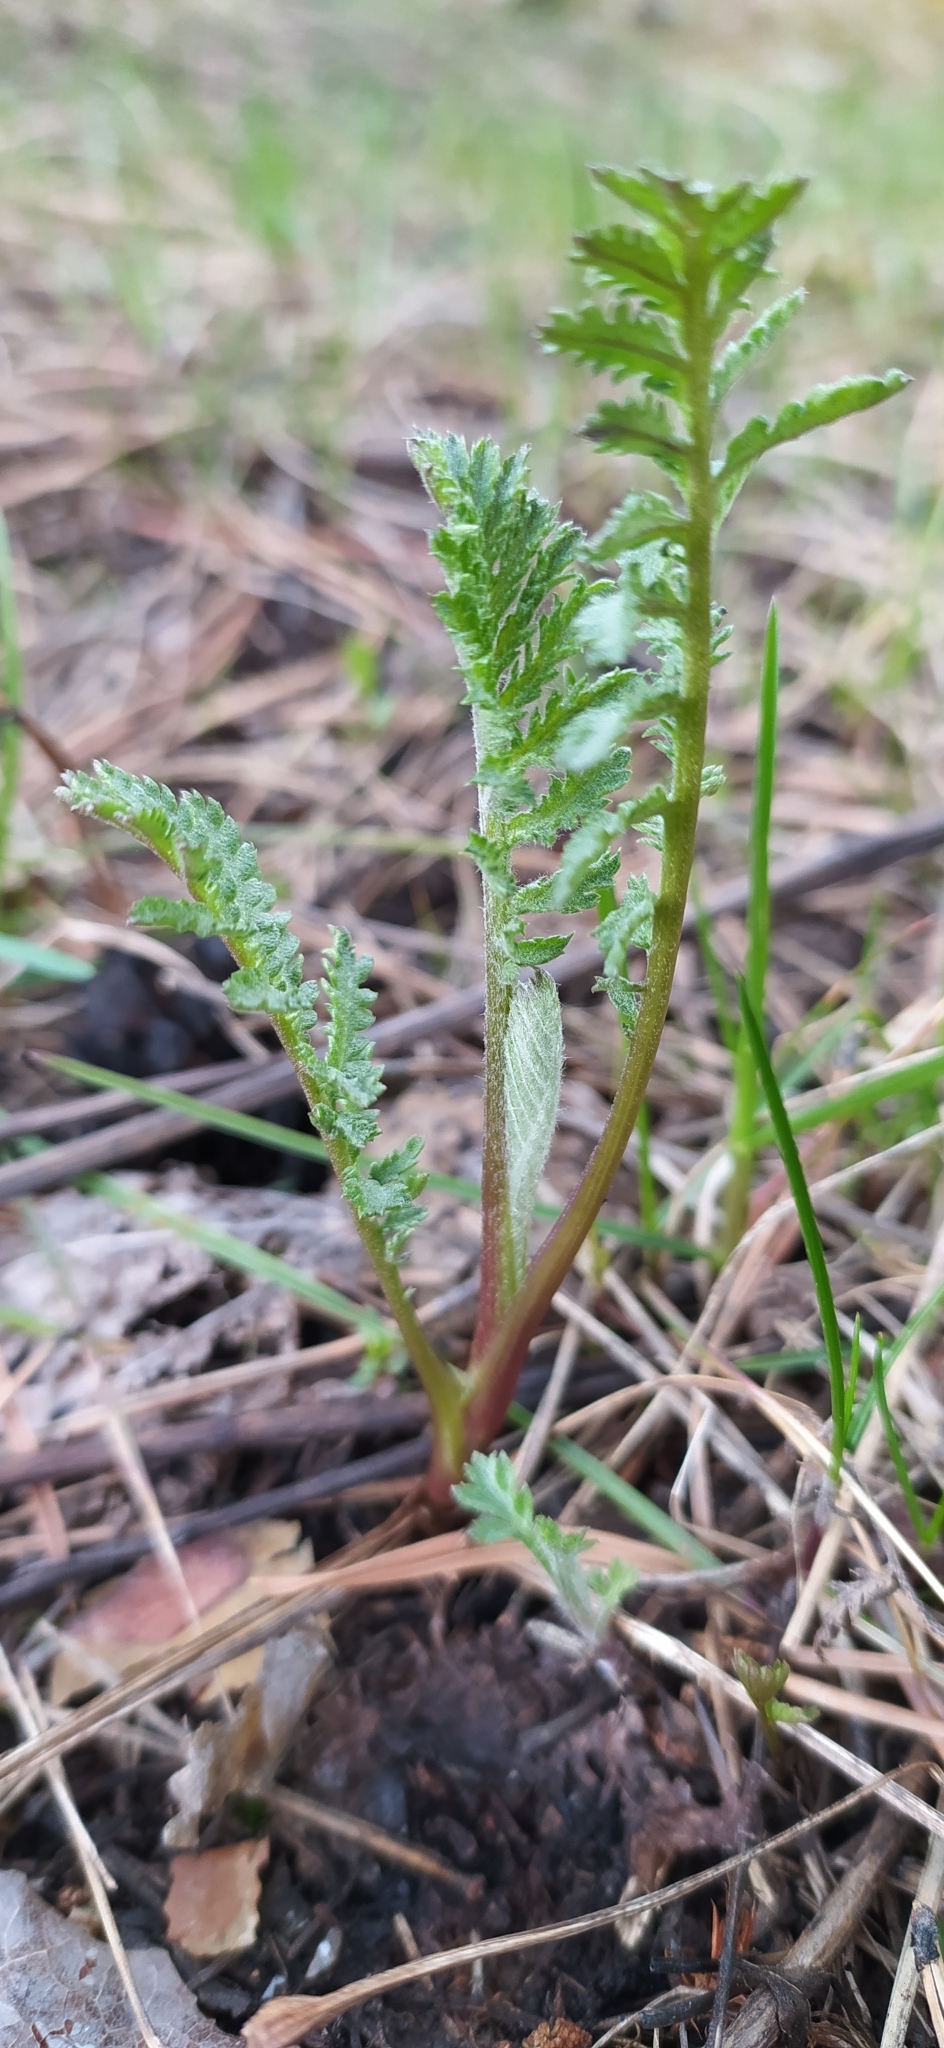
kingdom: Plantae
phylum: Tracheophyta
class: Magnoliopsida
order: Asterales
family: Asteraceae
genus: Tanacetum
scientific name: Tanacetum vulgare
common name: Common tansy
